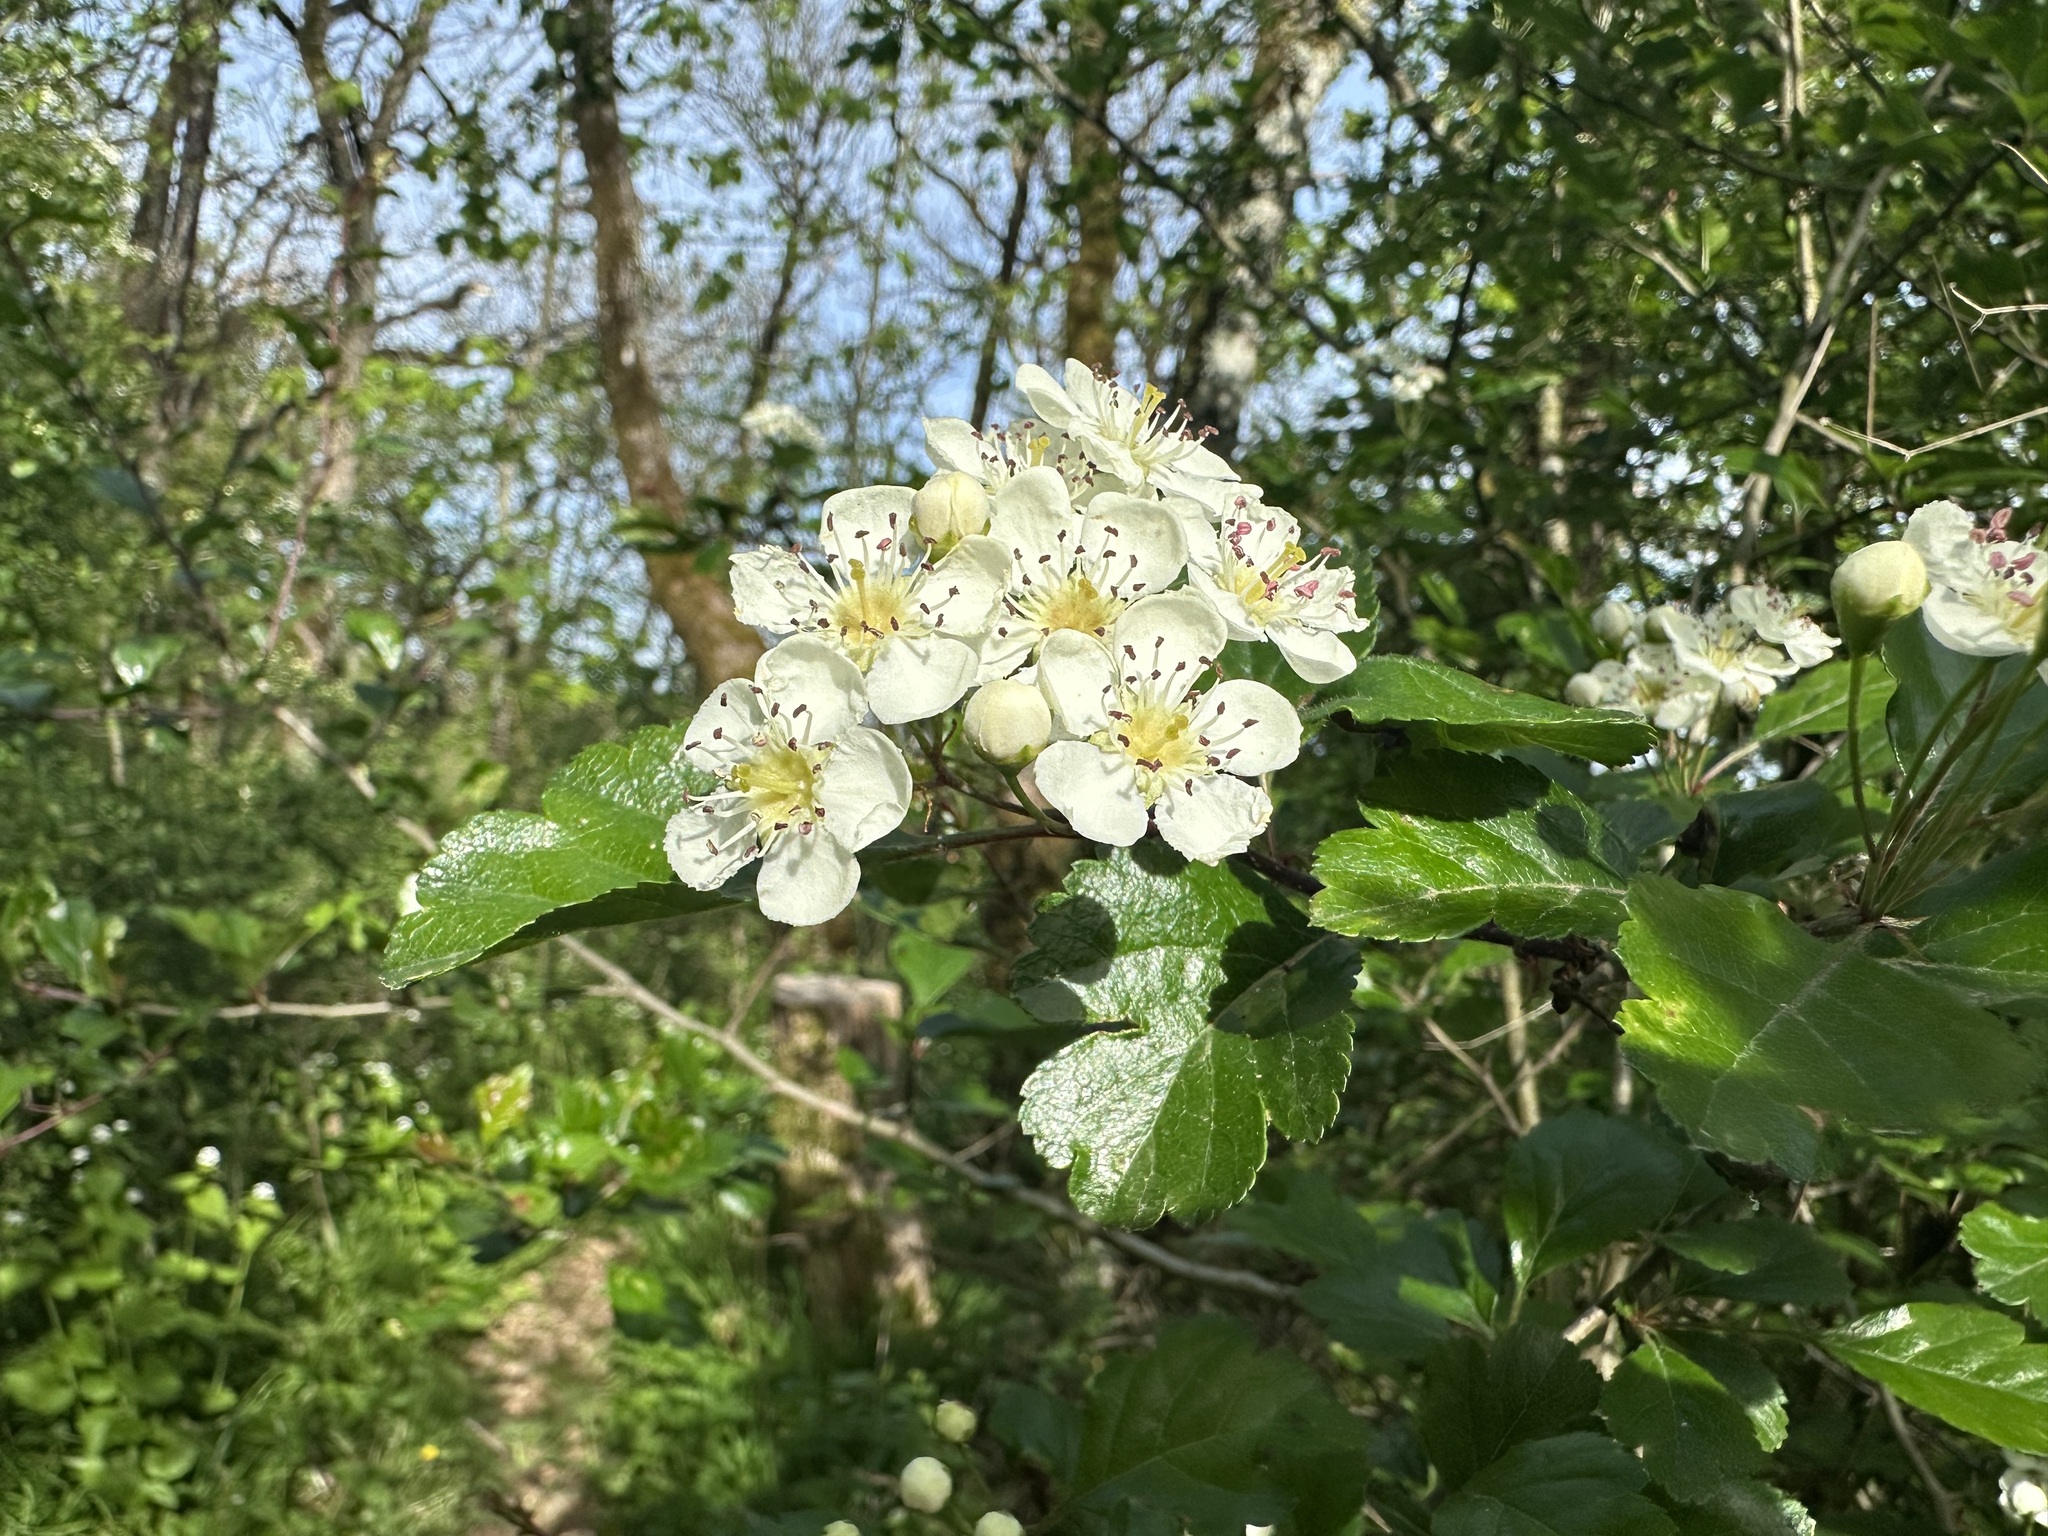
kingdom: Plantae
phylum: Tracheophyta
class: Magnoliopsida
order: Rosales
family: Rosaceae
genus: Crataegus
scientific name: Crataegus laevigata
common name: Midland hawthorn
